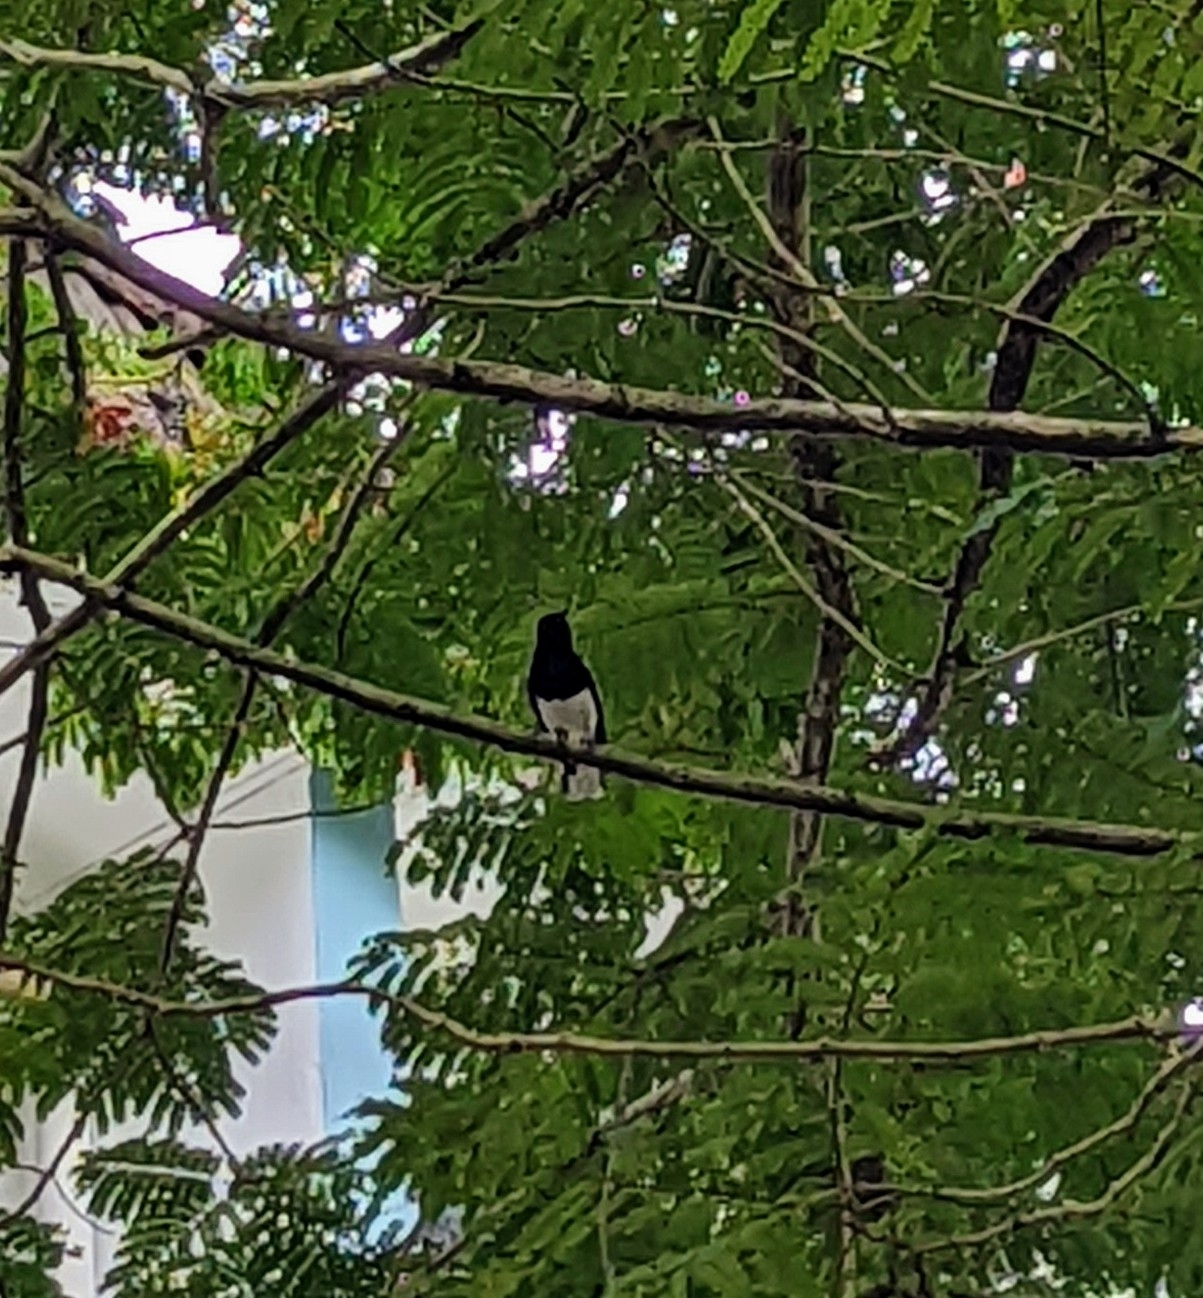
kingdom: Animalia
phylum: Chordata
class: Aves
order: Passeriformes
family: Muscicapidae
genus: Copsychus
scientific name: Copsychus saularis
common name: Oriental magpie-robin
